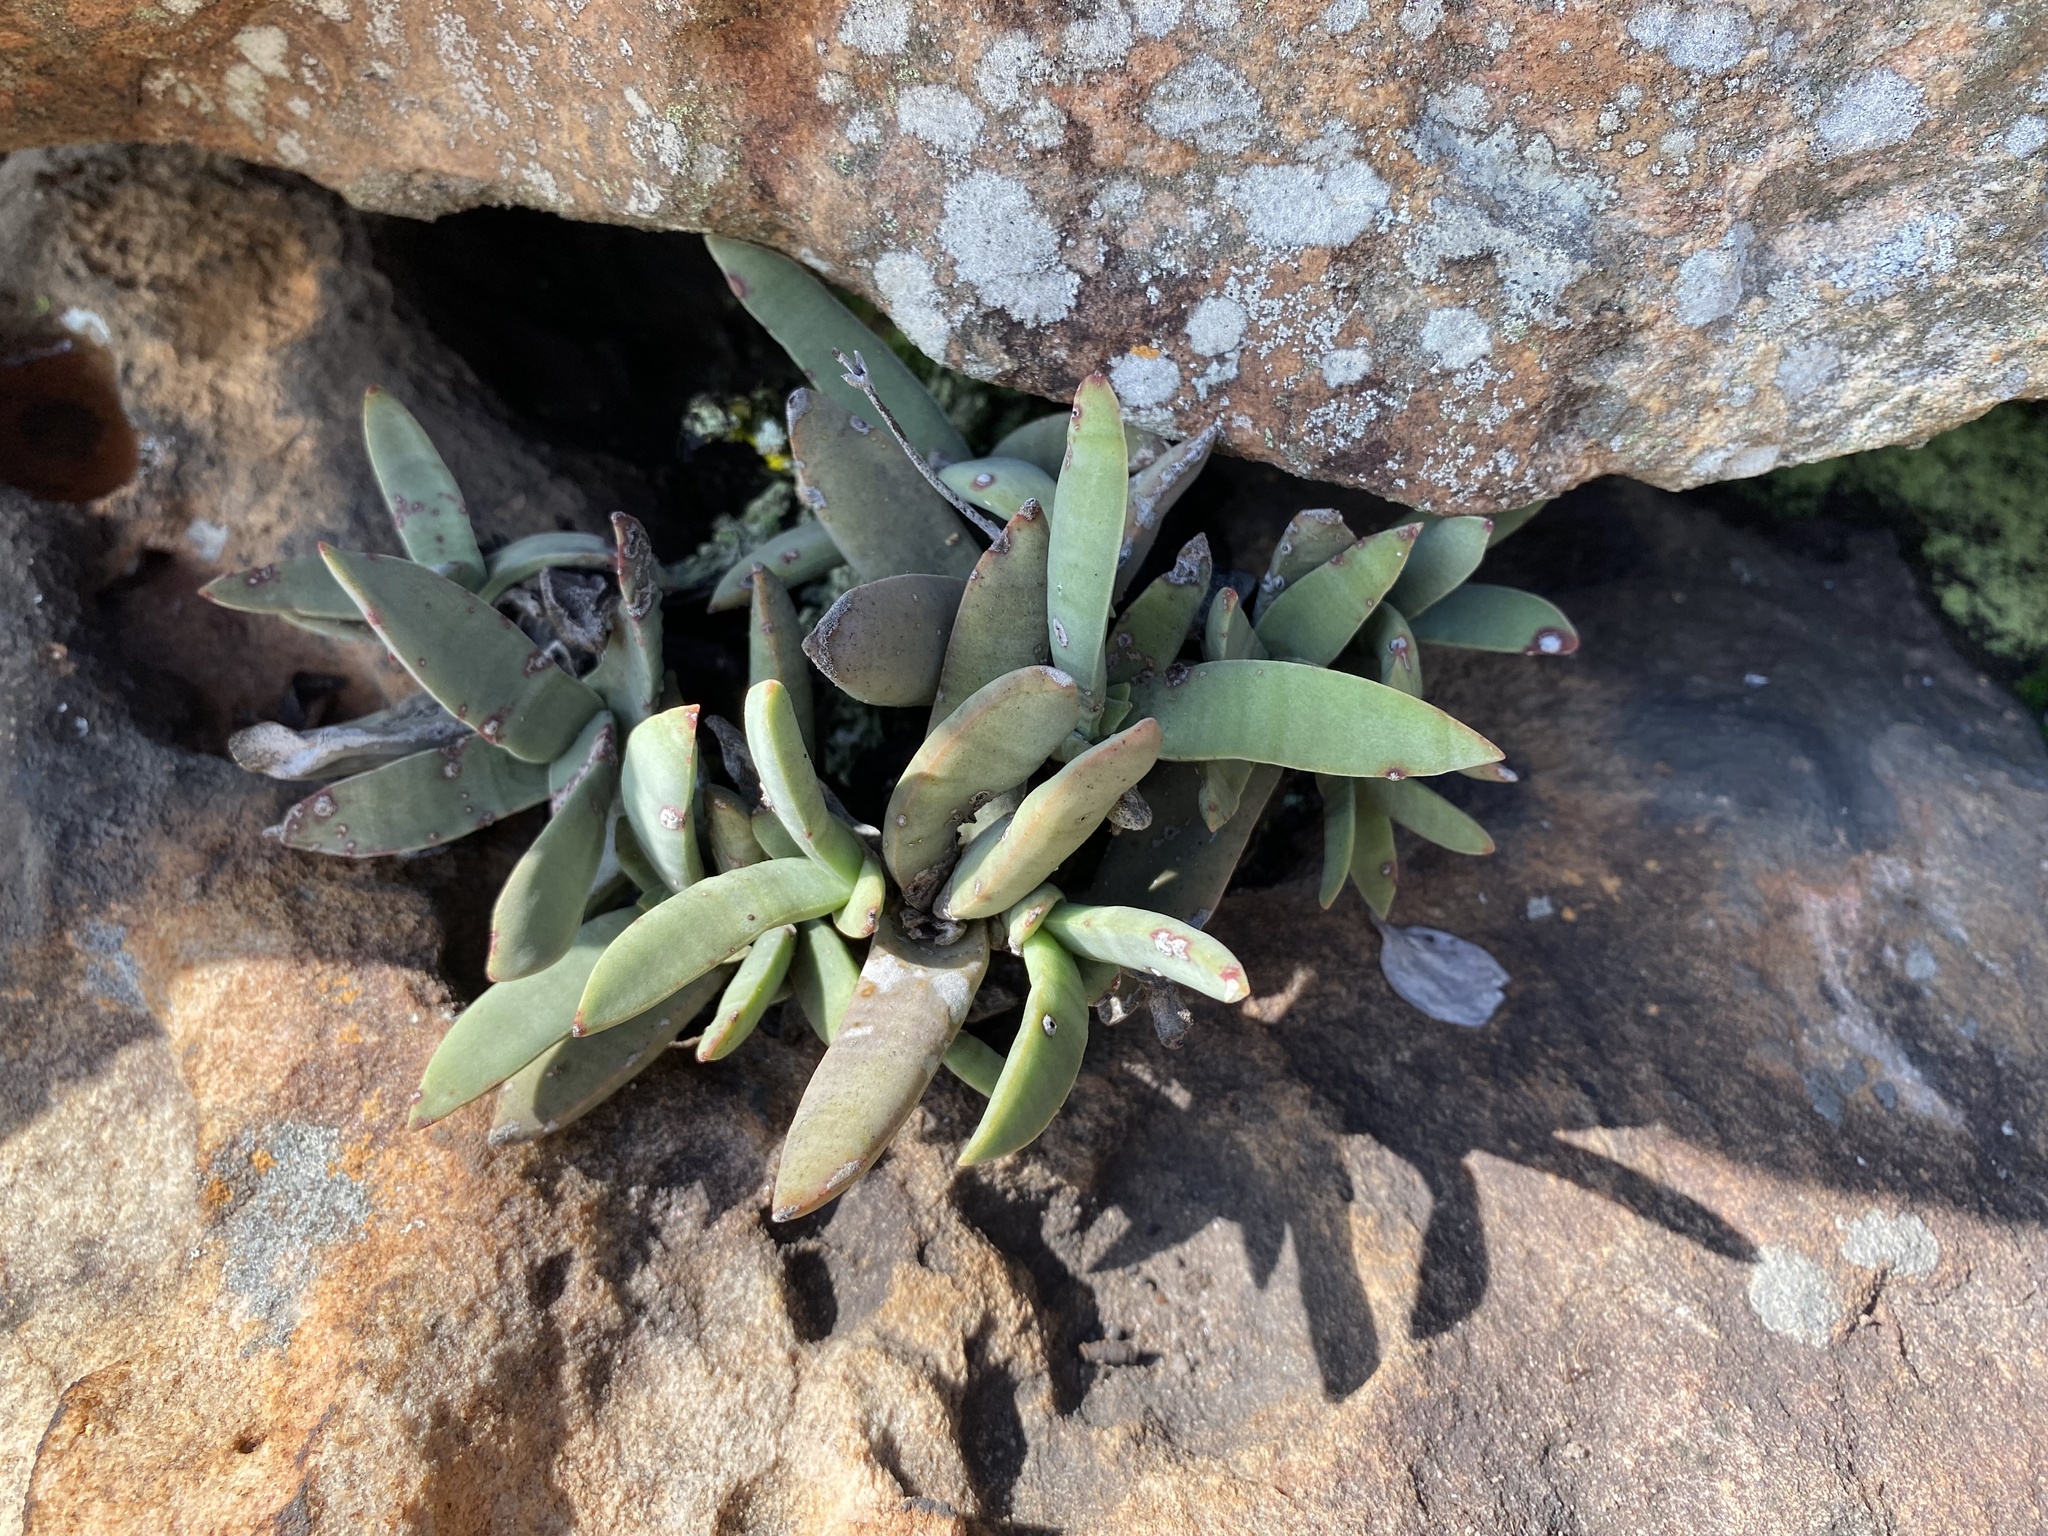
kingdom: Plantae
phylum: Tracheophyta
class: Magnoliopsida
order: Saxifragales
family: Crassulaceae
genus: Crassula
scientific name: Crassula perfoliata
